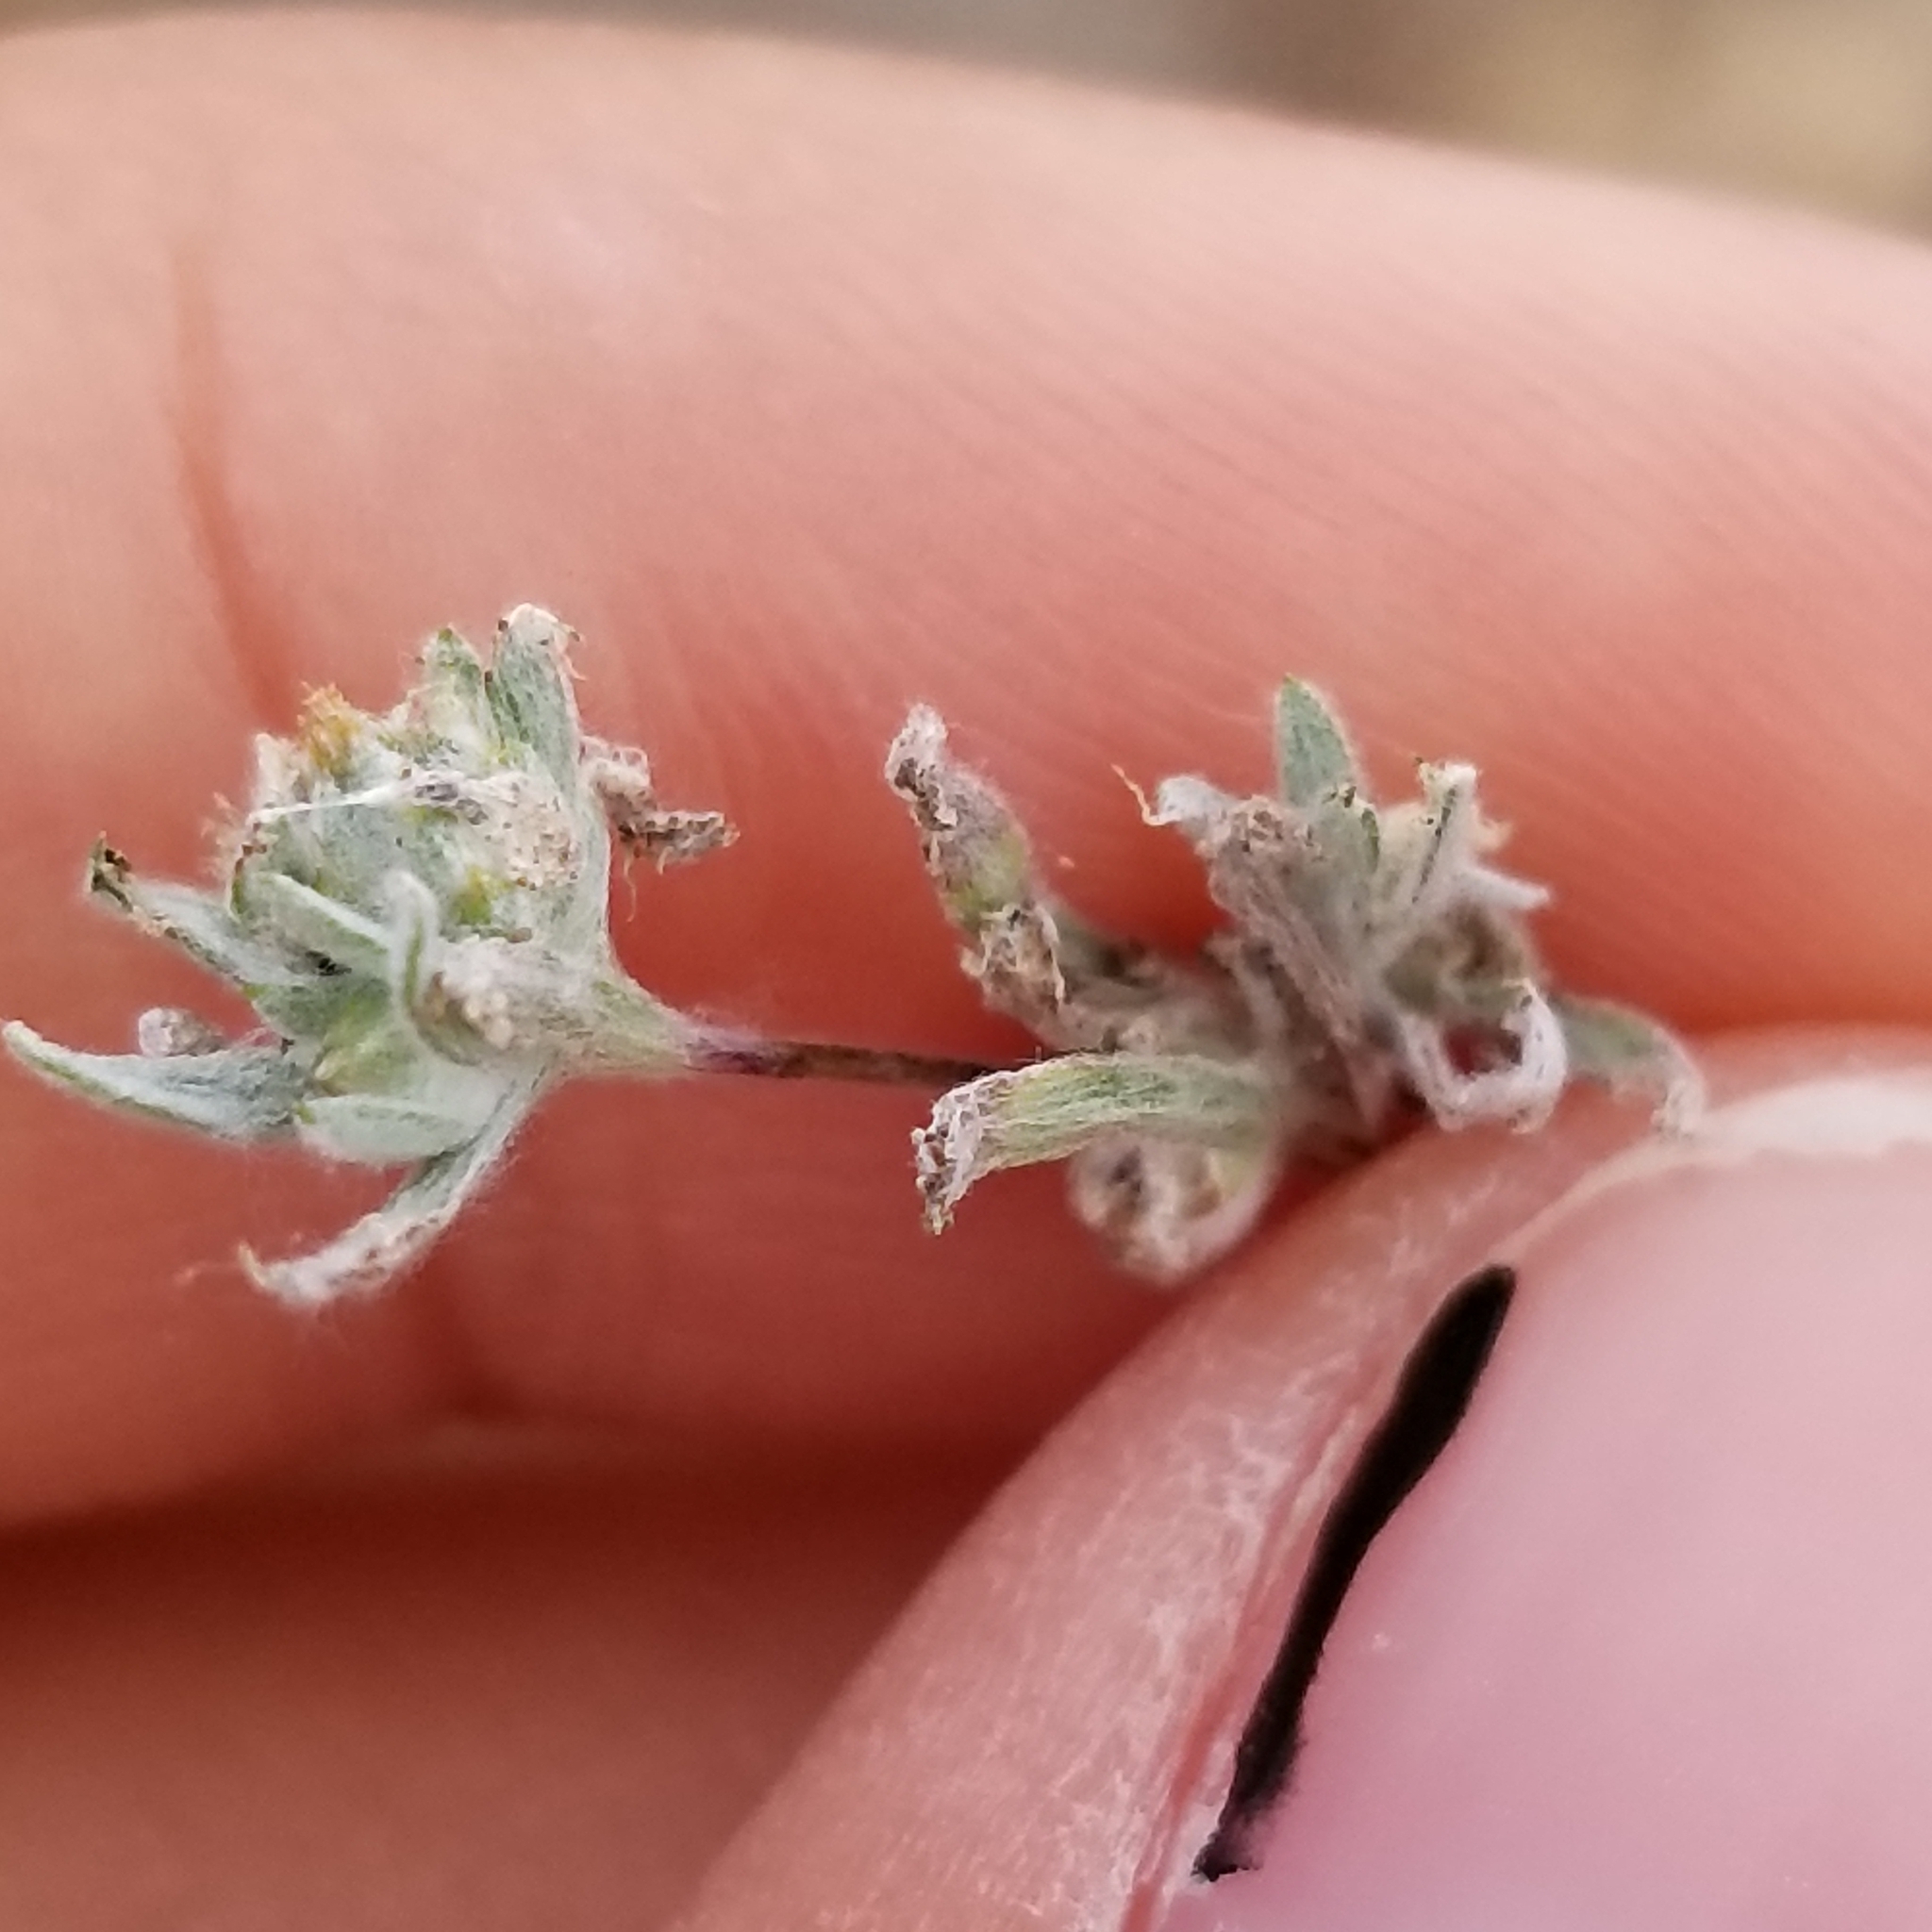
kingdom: Plantae
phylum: Tracheophyta
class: Magnoliopsida
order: Asterales
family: Asteraceae
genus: Logfia
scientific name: Logfia arizonica
